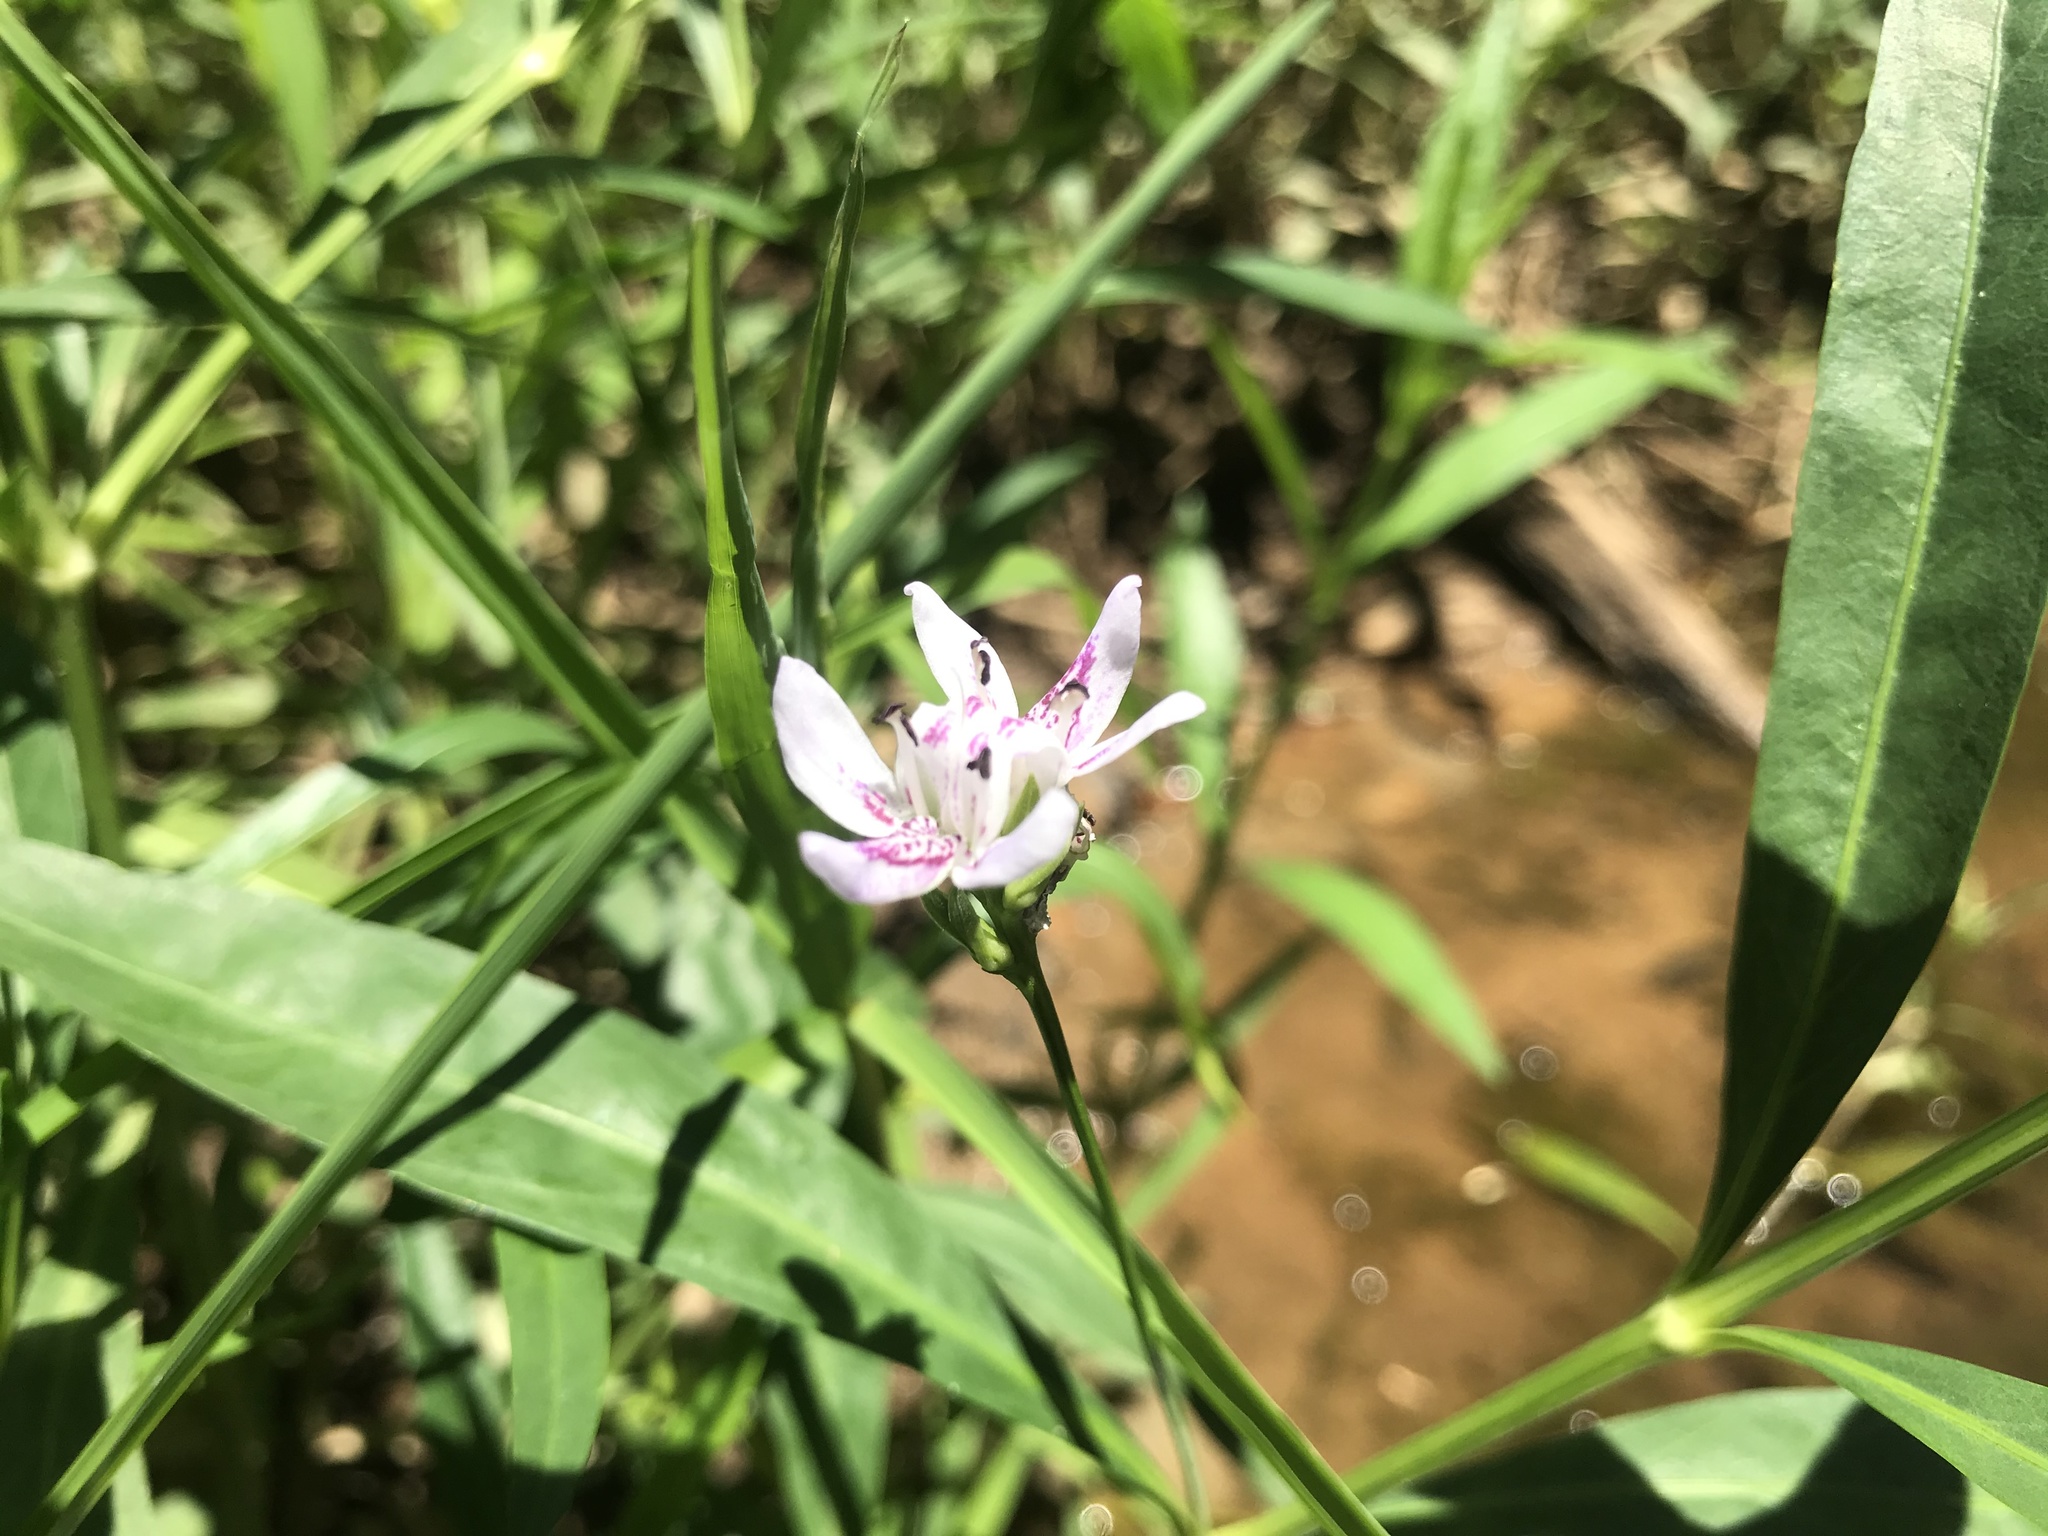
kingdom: Plantae
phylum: Tracheophyta
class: Magnoliopsida
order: Lamiales
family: Acanthaceae
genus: Dianthera
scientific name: Dianthera americana
